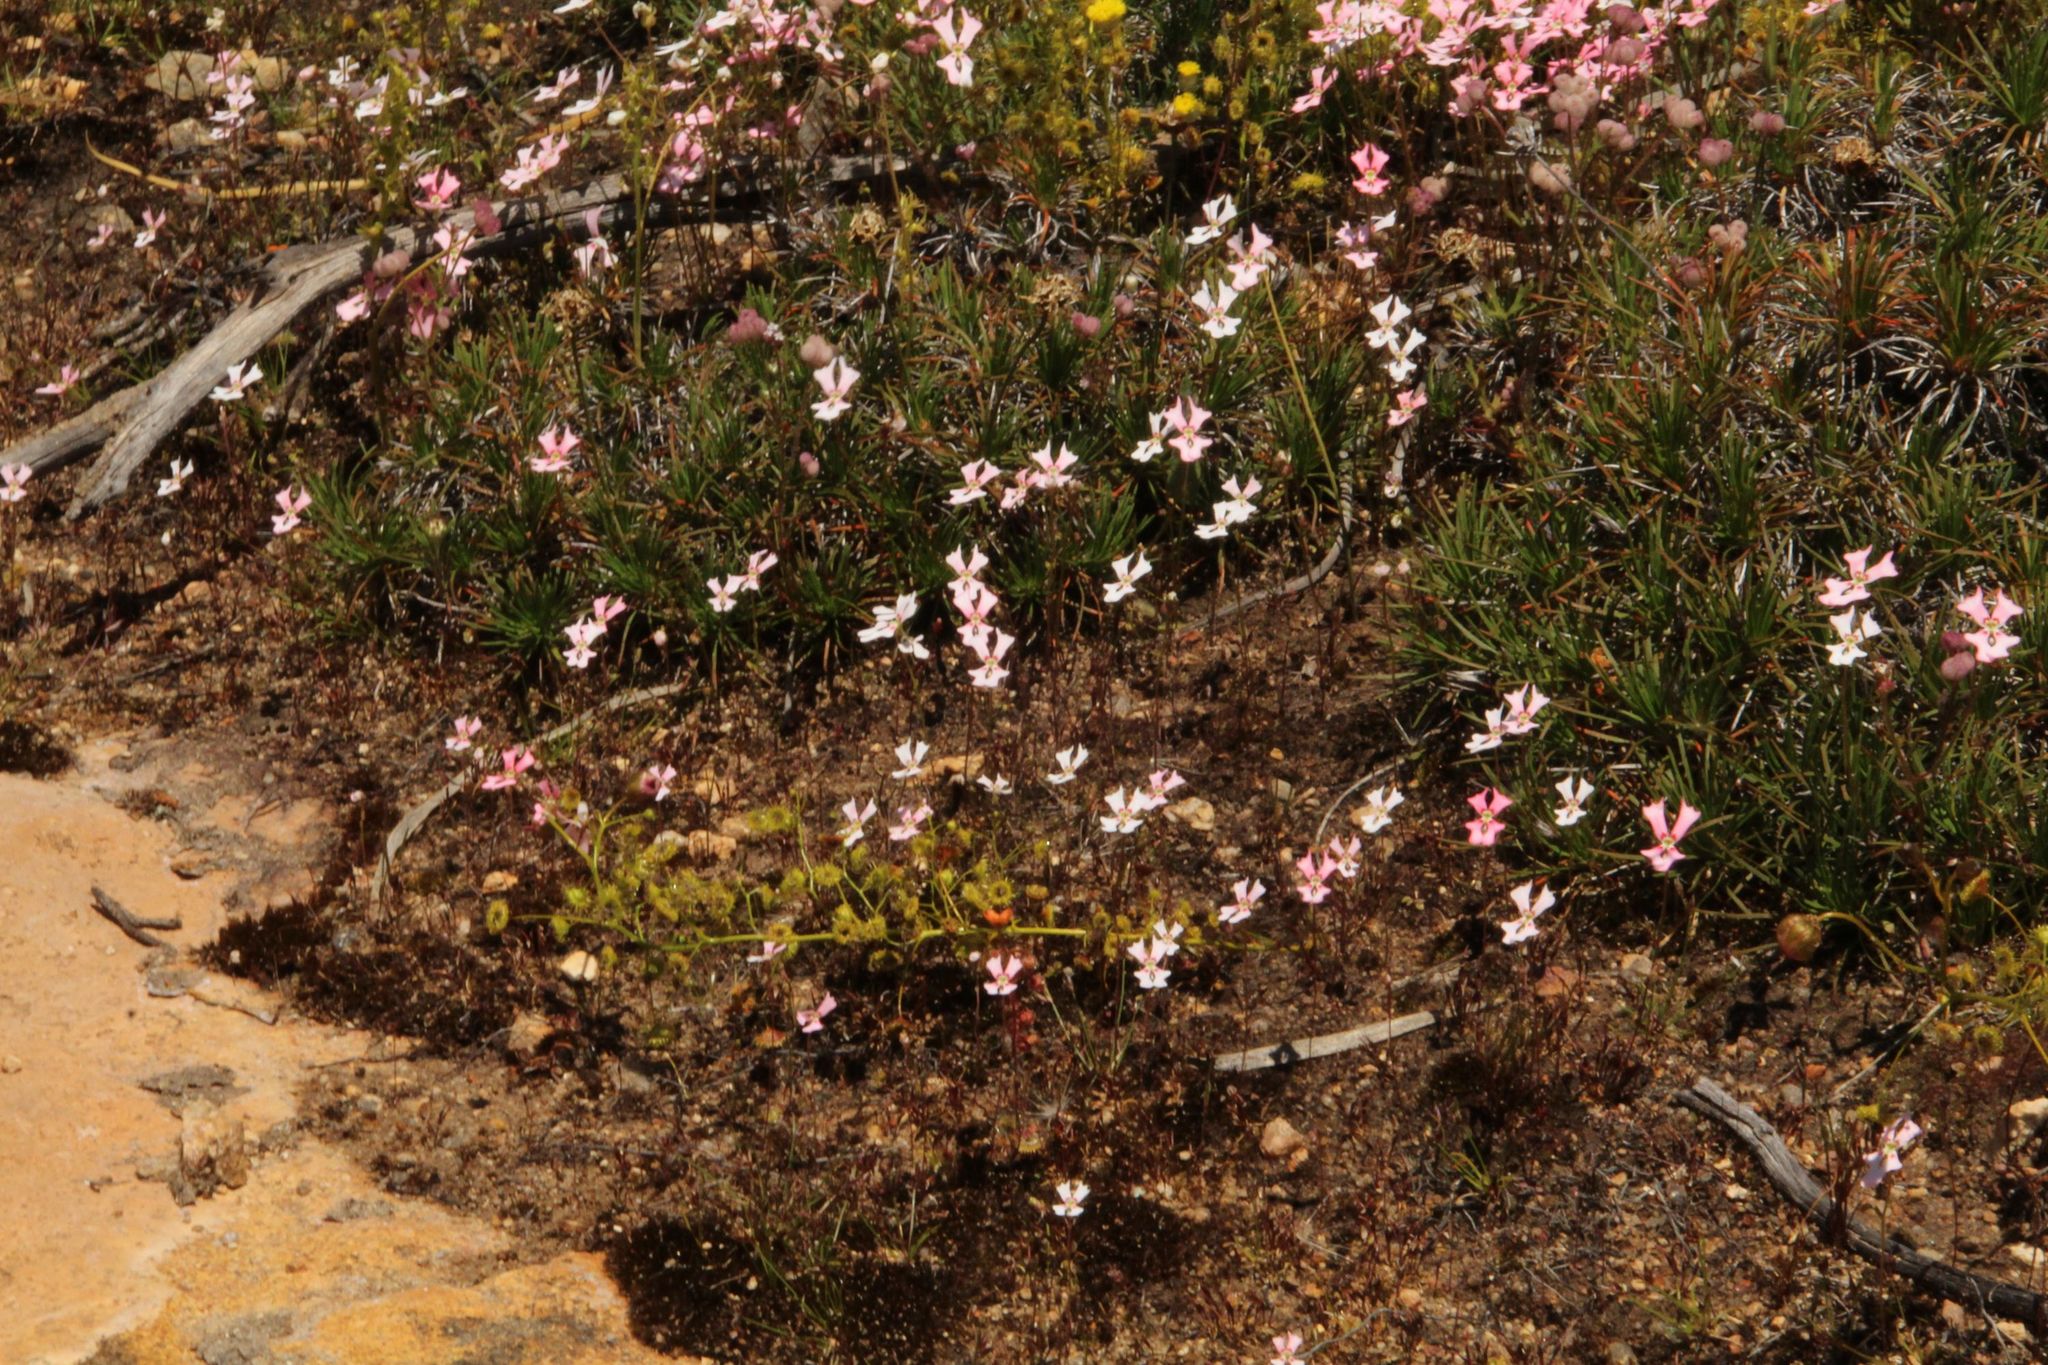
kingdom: Plantae
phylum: Tracheophyta
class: Magnoliopsida
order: Asterales
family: Stylidiaceae
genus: Stylidium
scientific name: Stylidium ecorne
